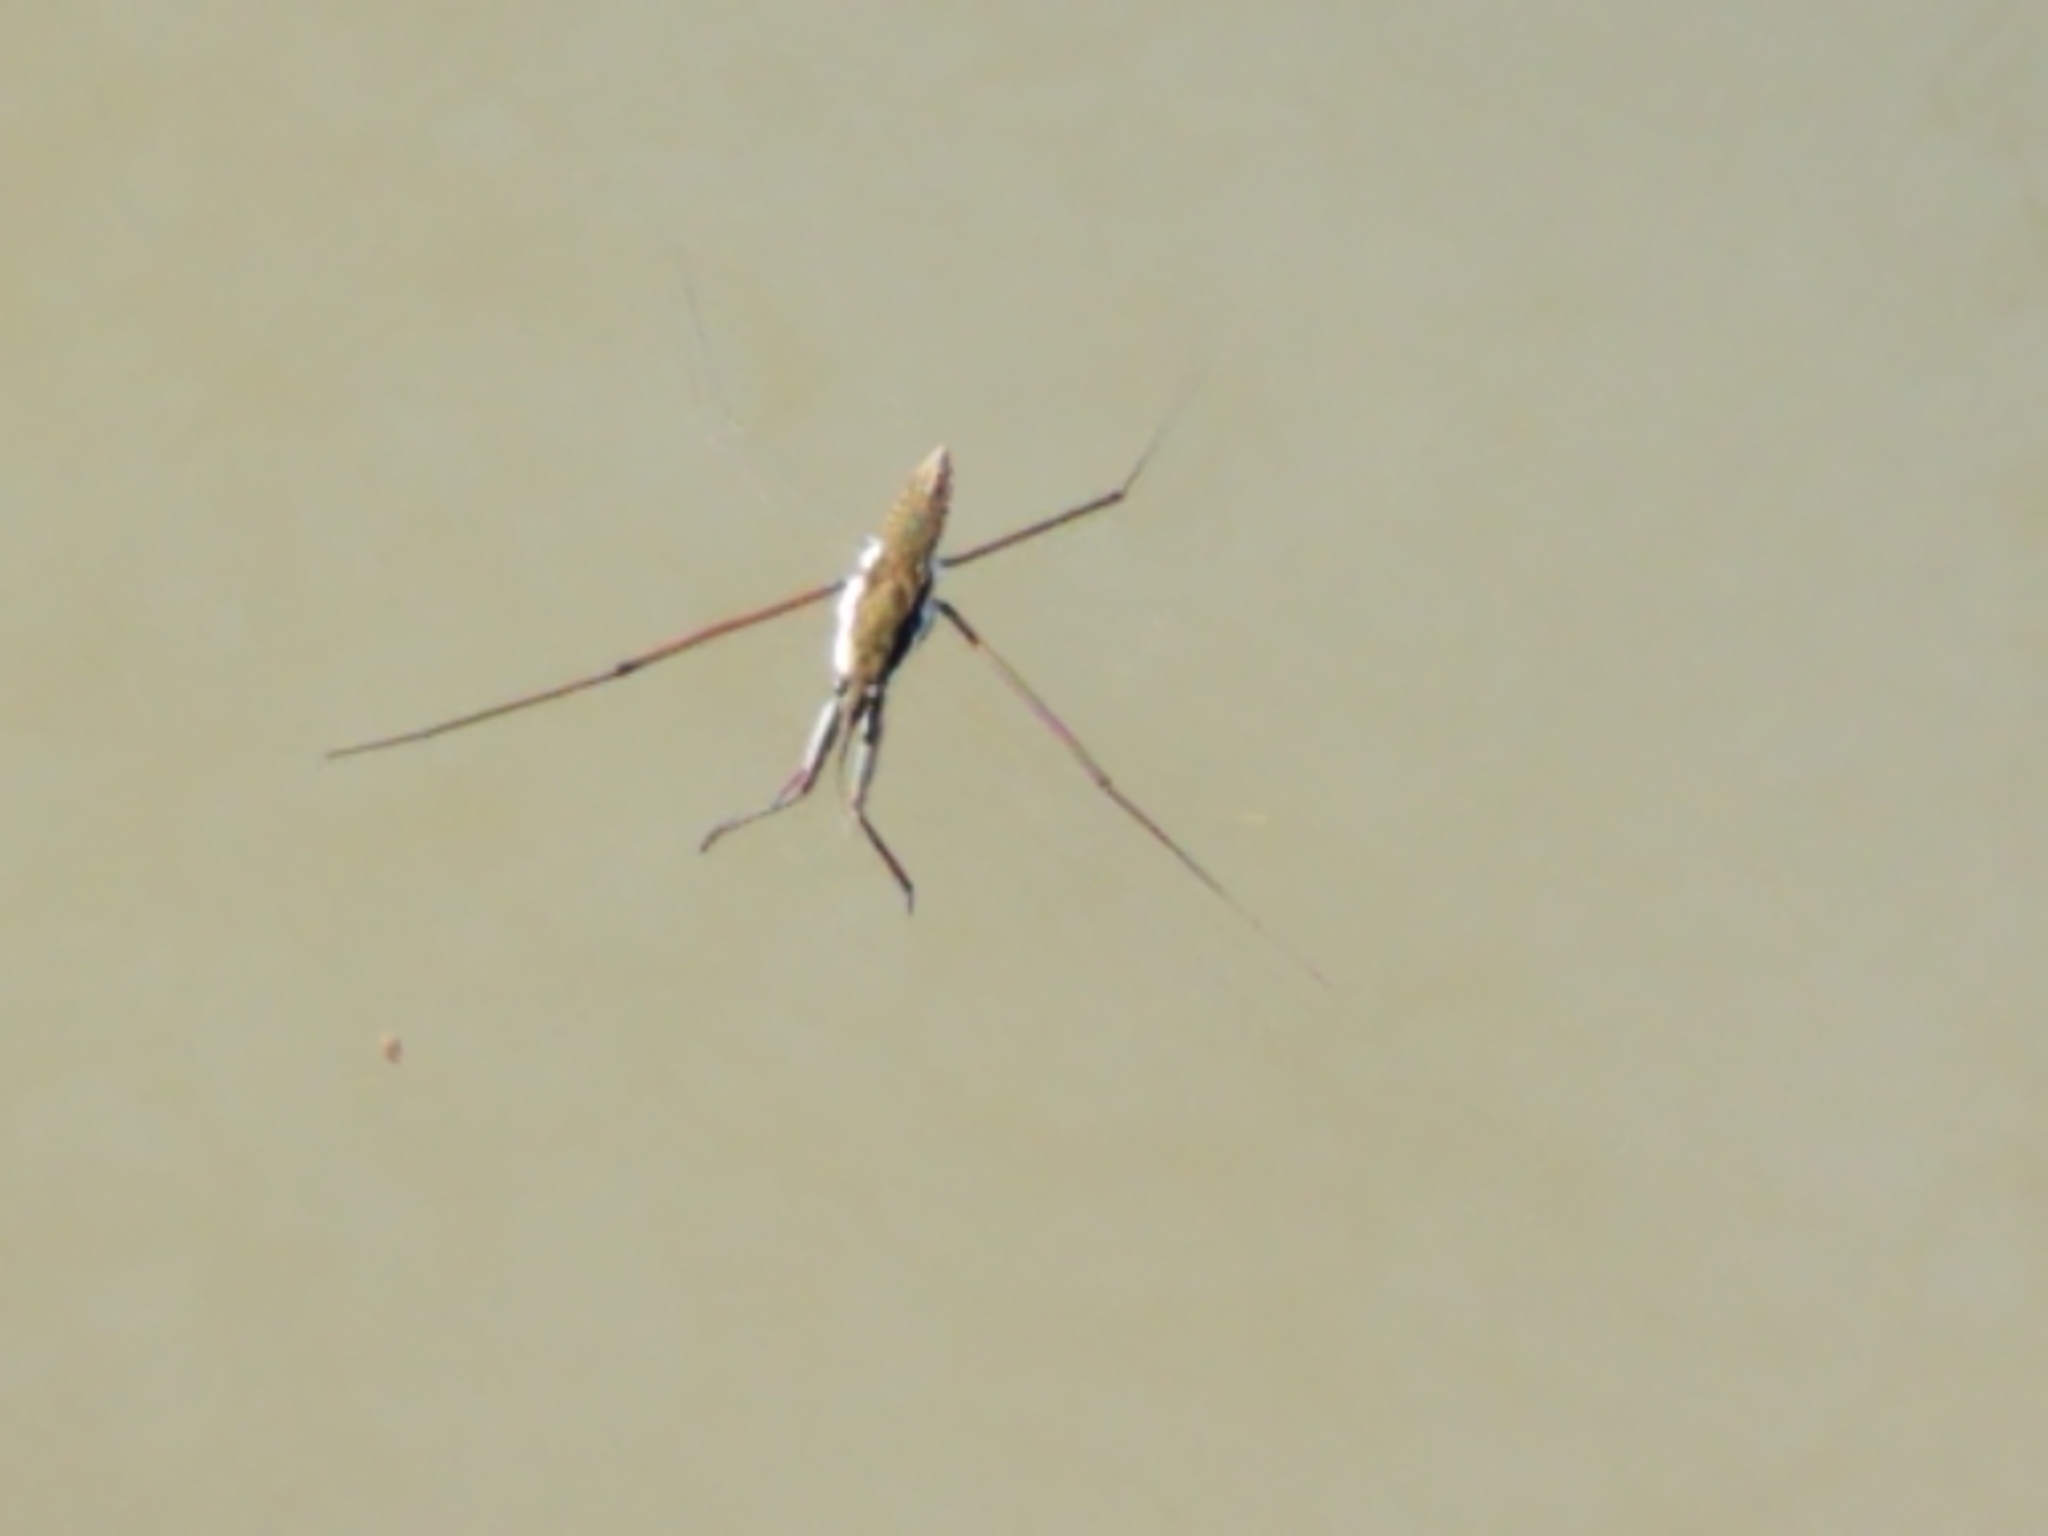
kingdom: Animalia
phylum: Arthropoda
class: Insecta
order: Hemiptera
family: Gerridae
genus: Aquarius
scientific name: Aquarius
